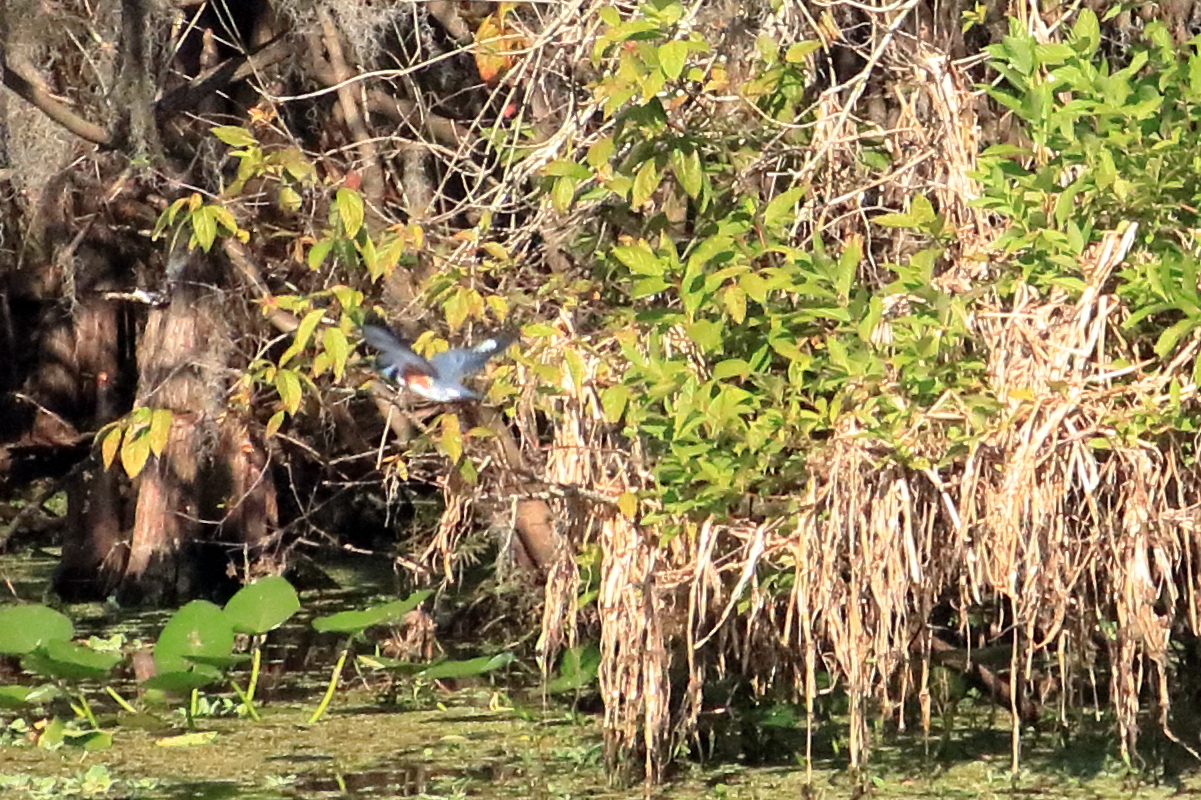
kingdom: Animalia
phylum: Chordata
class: Aves
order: Coraciiformes
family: Alcedinidae
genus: Megaceryle
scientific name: Megaceryle alcyon
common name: Belted kingfisher
